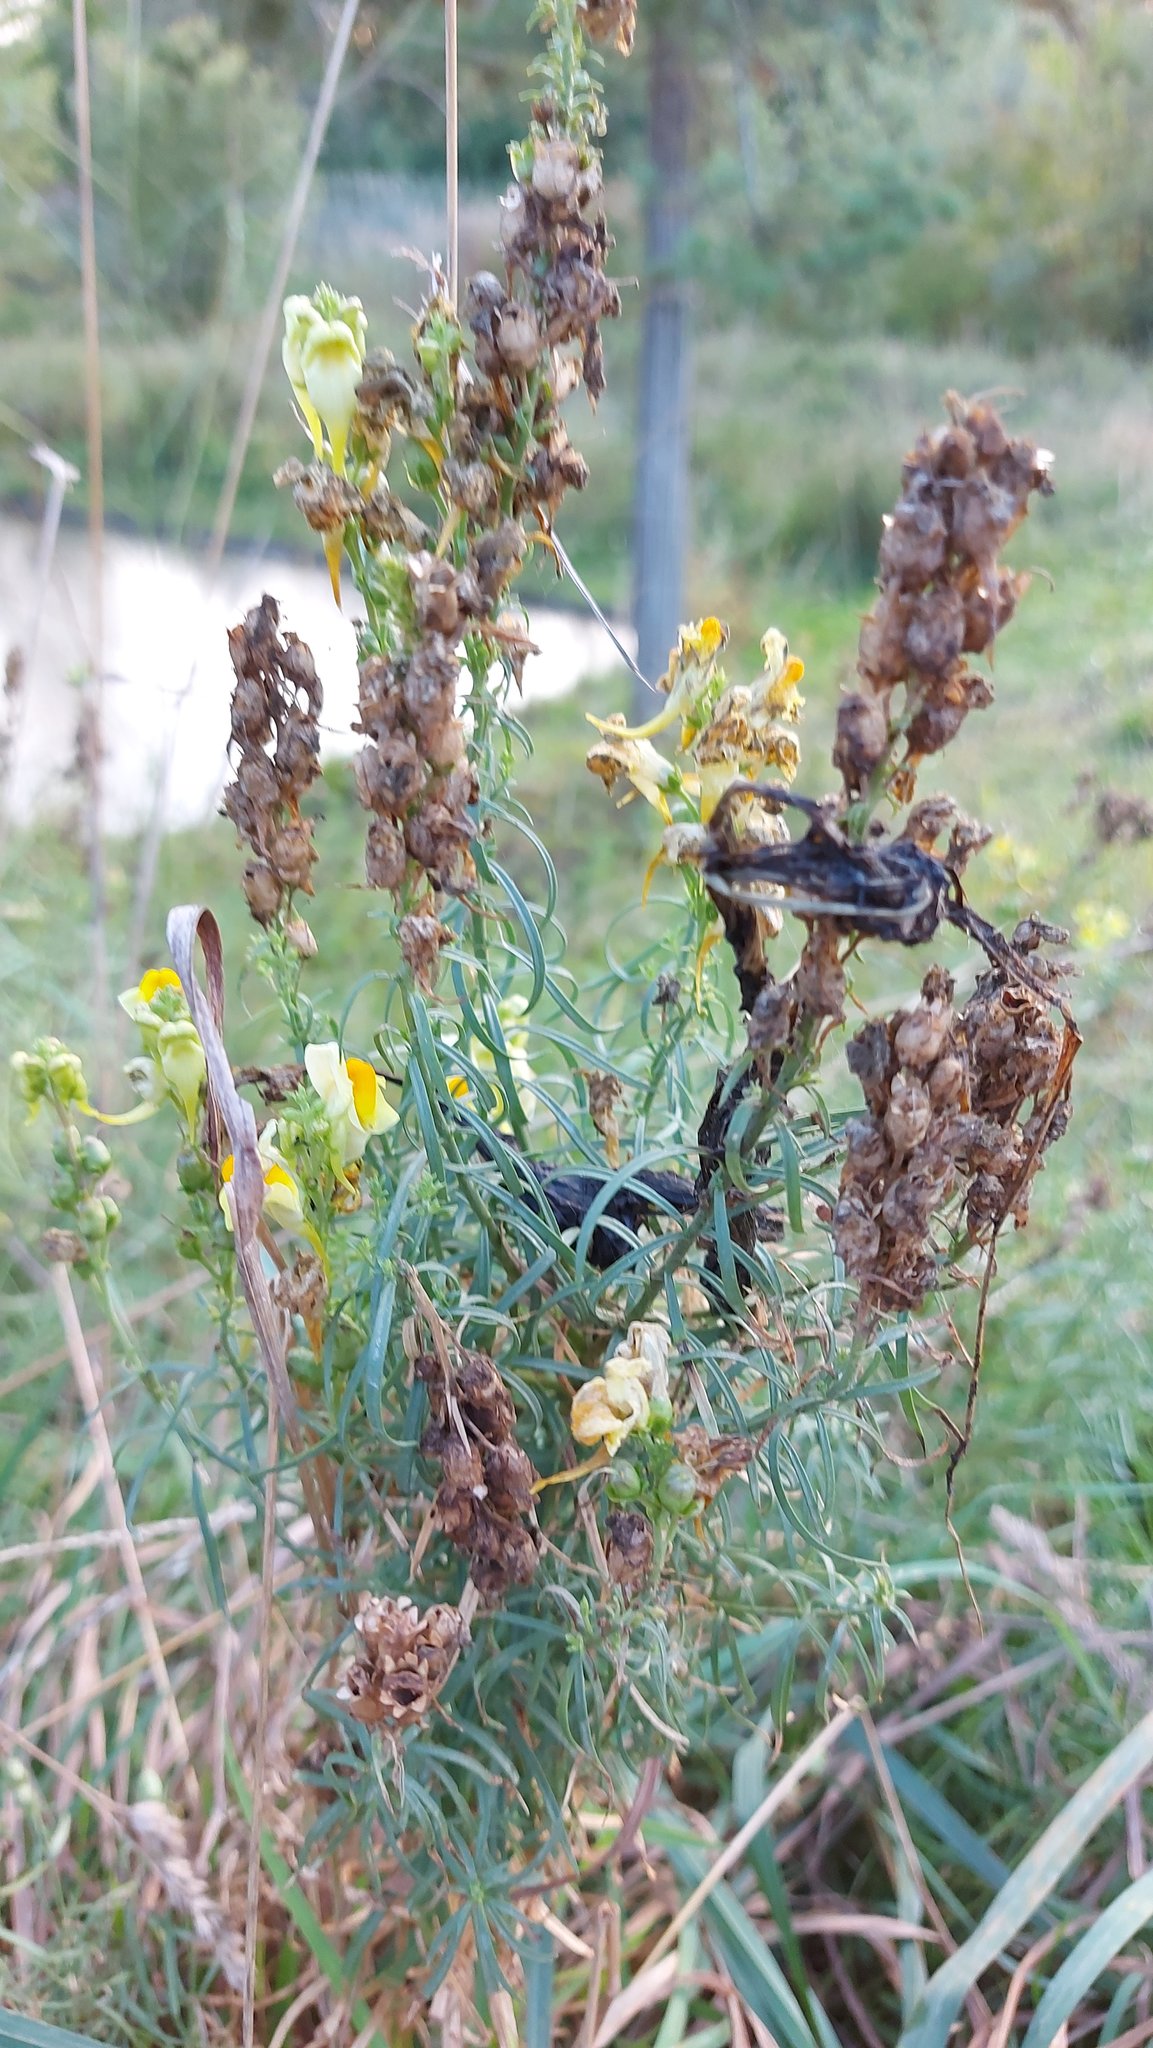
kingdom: Plantae
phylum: Tracheophyta
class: Magnoliopsida
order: Lamiales
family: Plantaginaceae
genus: Linaria
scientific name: Linaria vulgaris
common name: Butter and eggs
